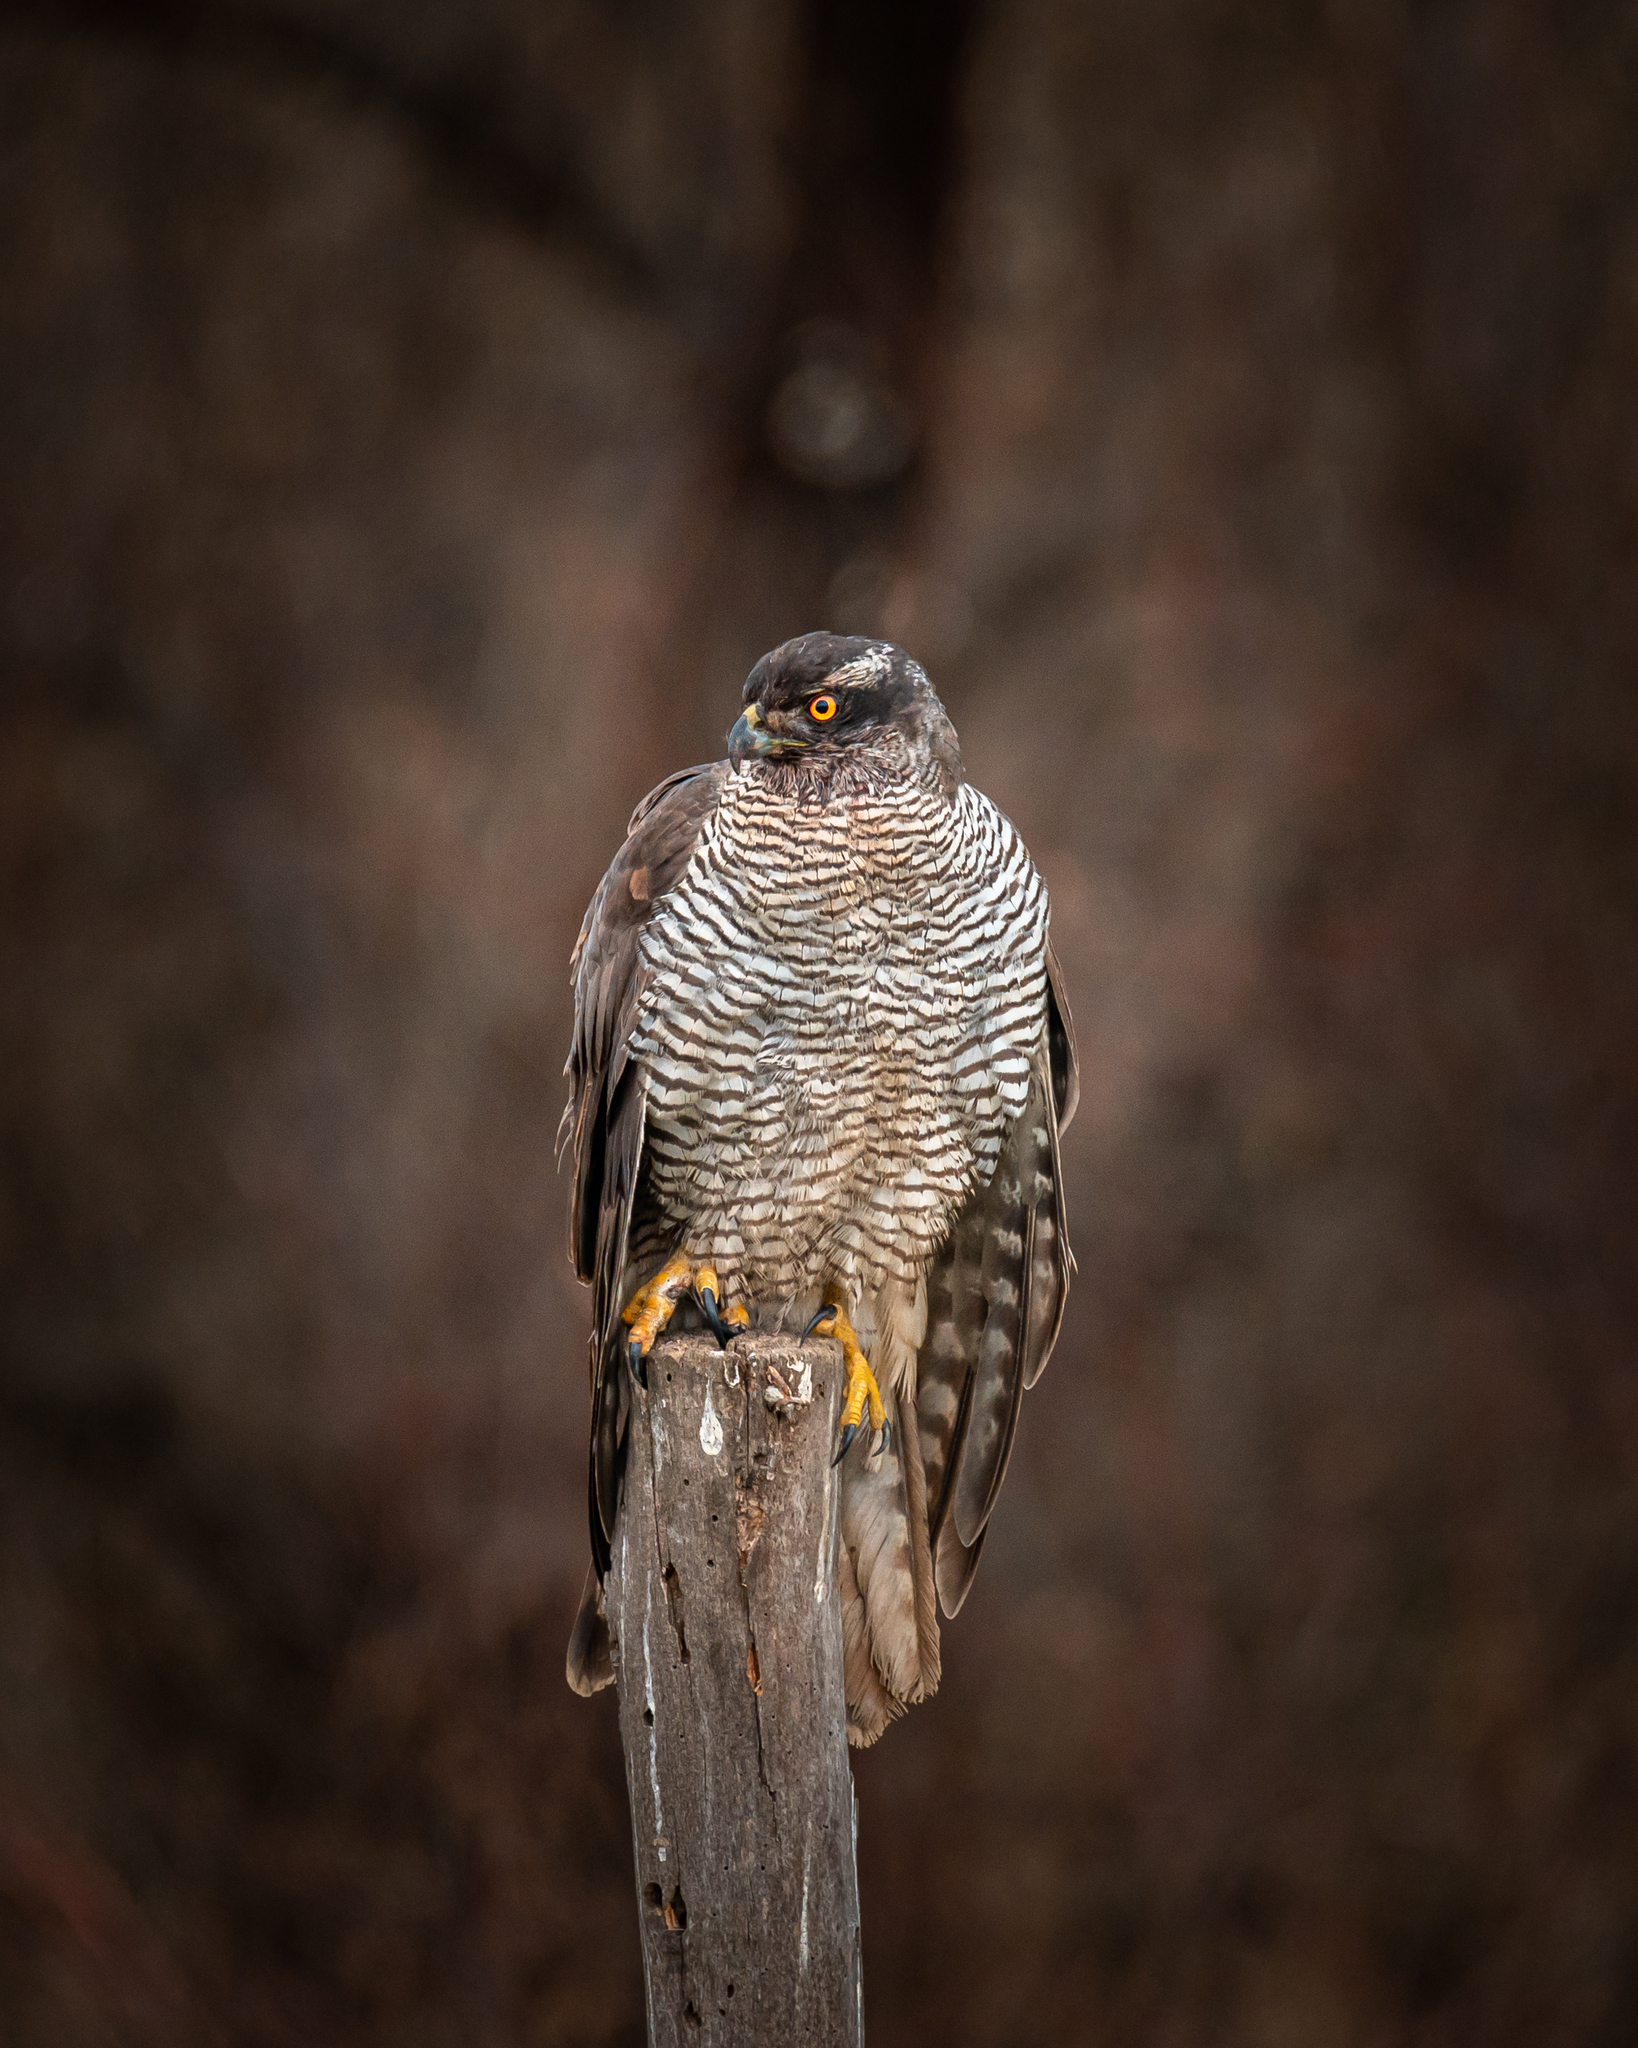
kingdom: Animalia
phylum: Chordata
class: Aves
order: Accipitriformes
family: Accipitridae
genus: Accipiter
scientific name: Accipiter gentilis
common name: Northern goshawk
